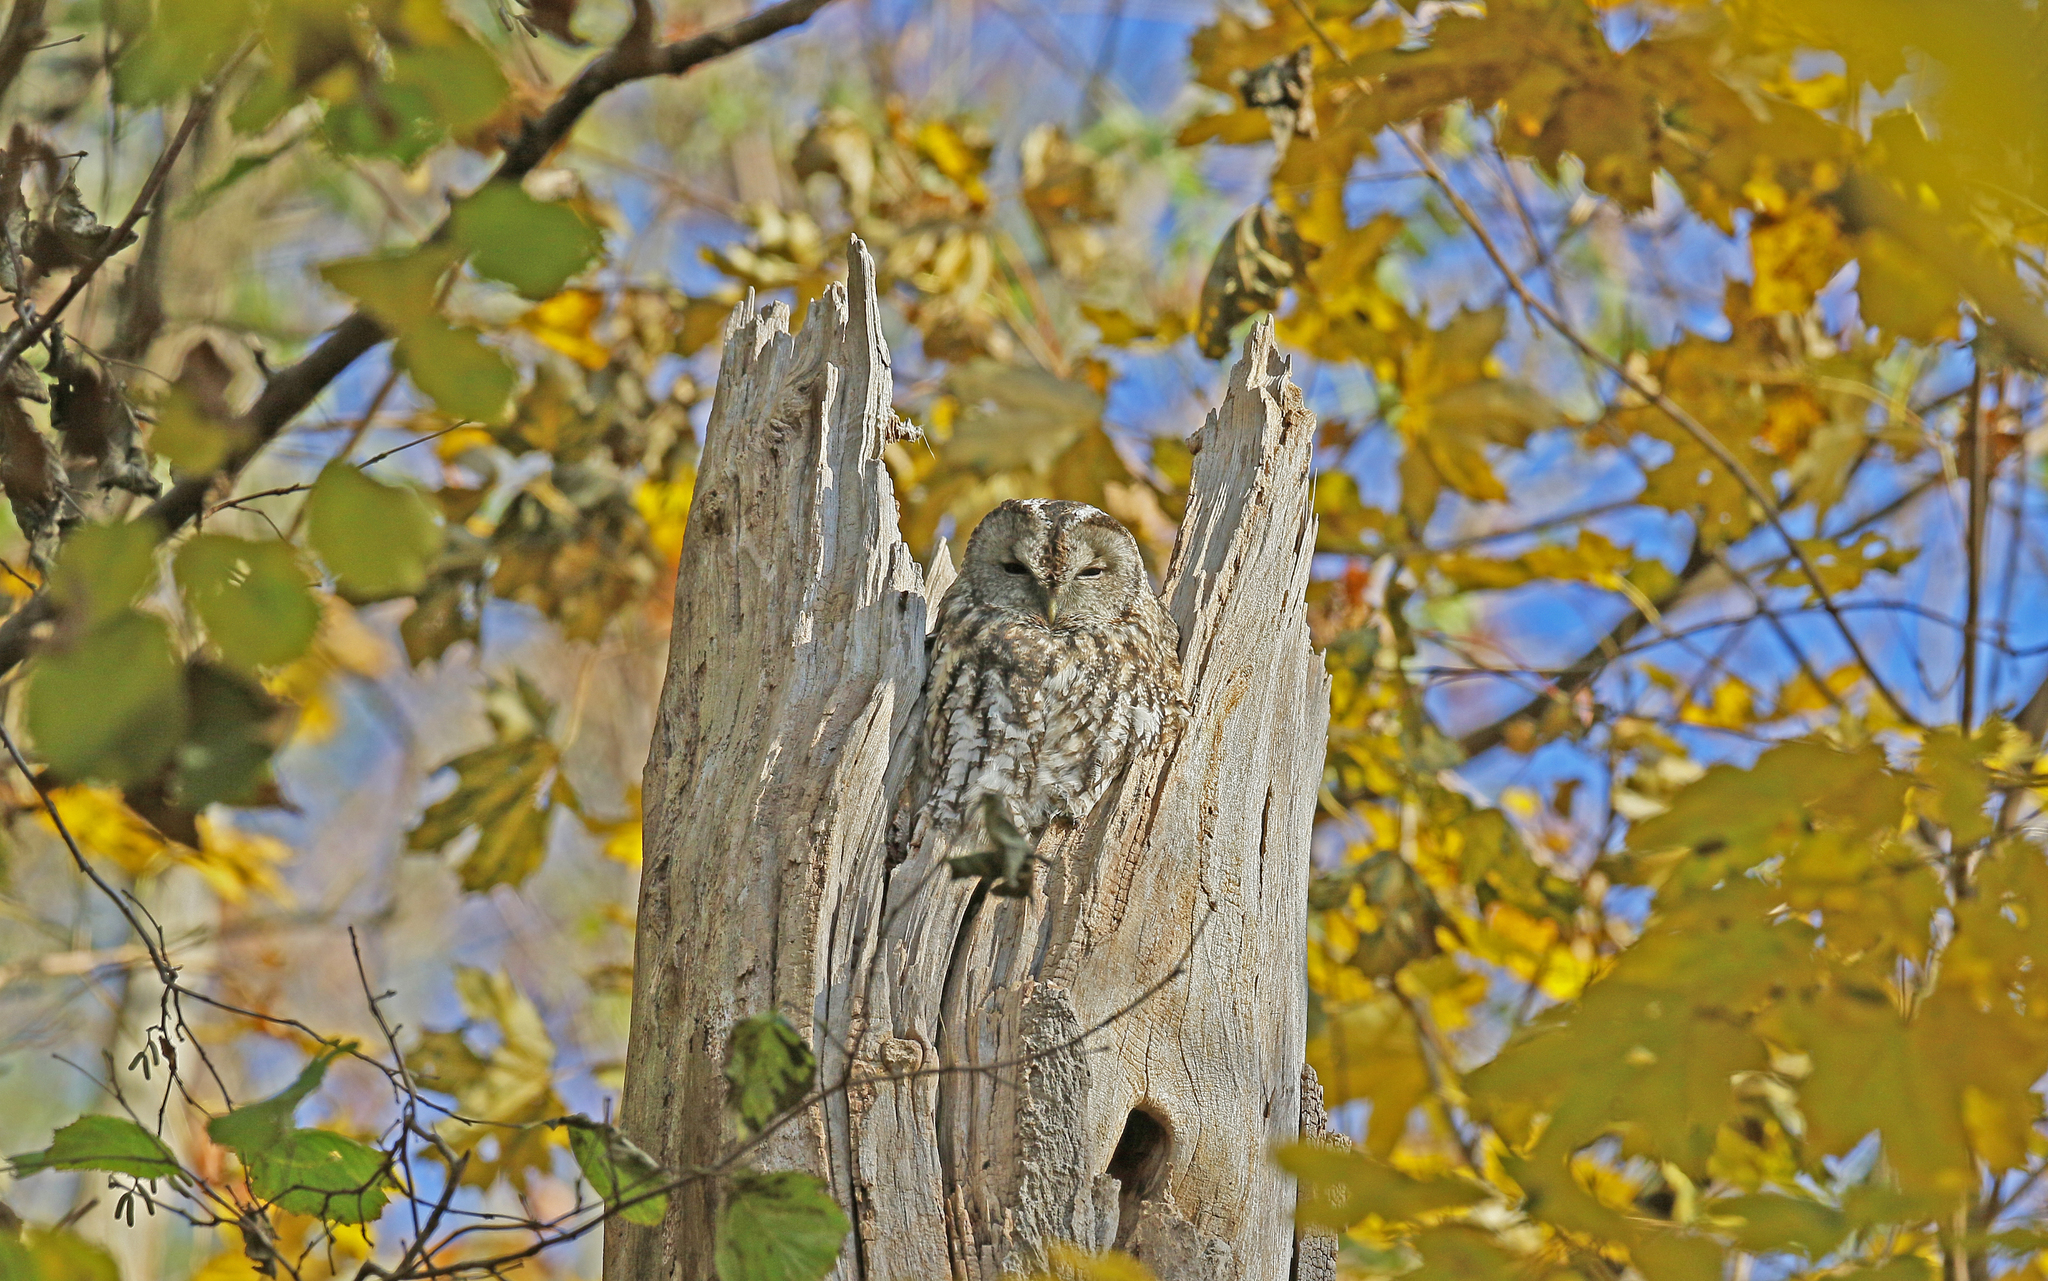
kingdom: Animalia
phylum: Chordata
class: Aves
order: Strigiformes
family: Strigidae
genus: Strix
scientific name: Strix aluco
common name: Tawny owl
